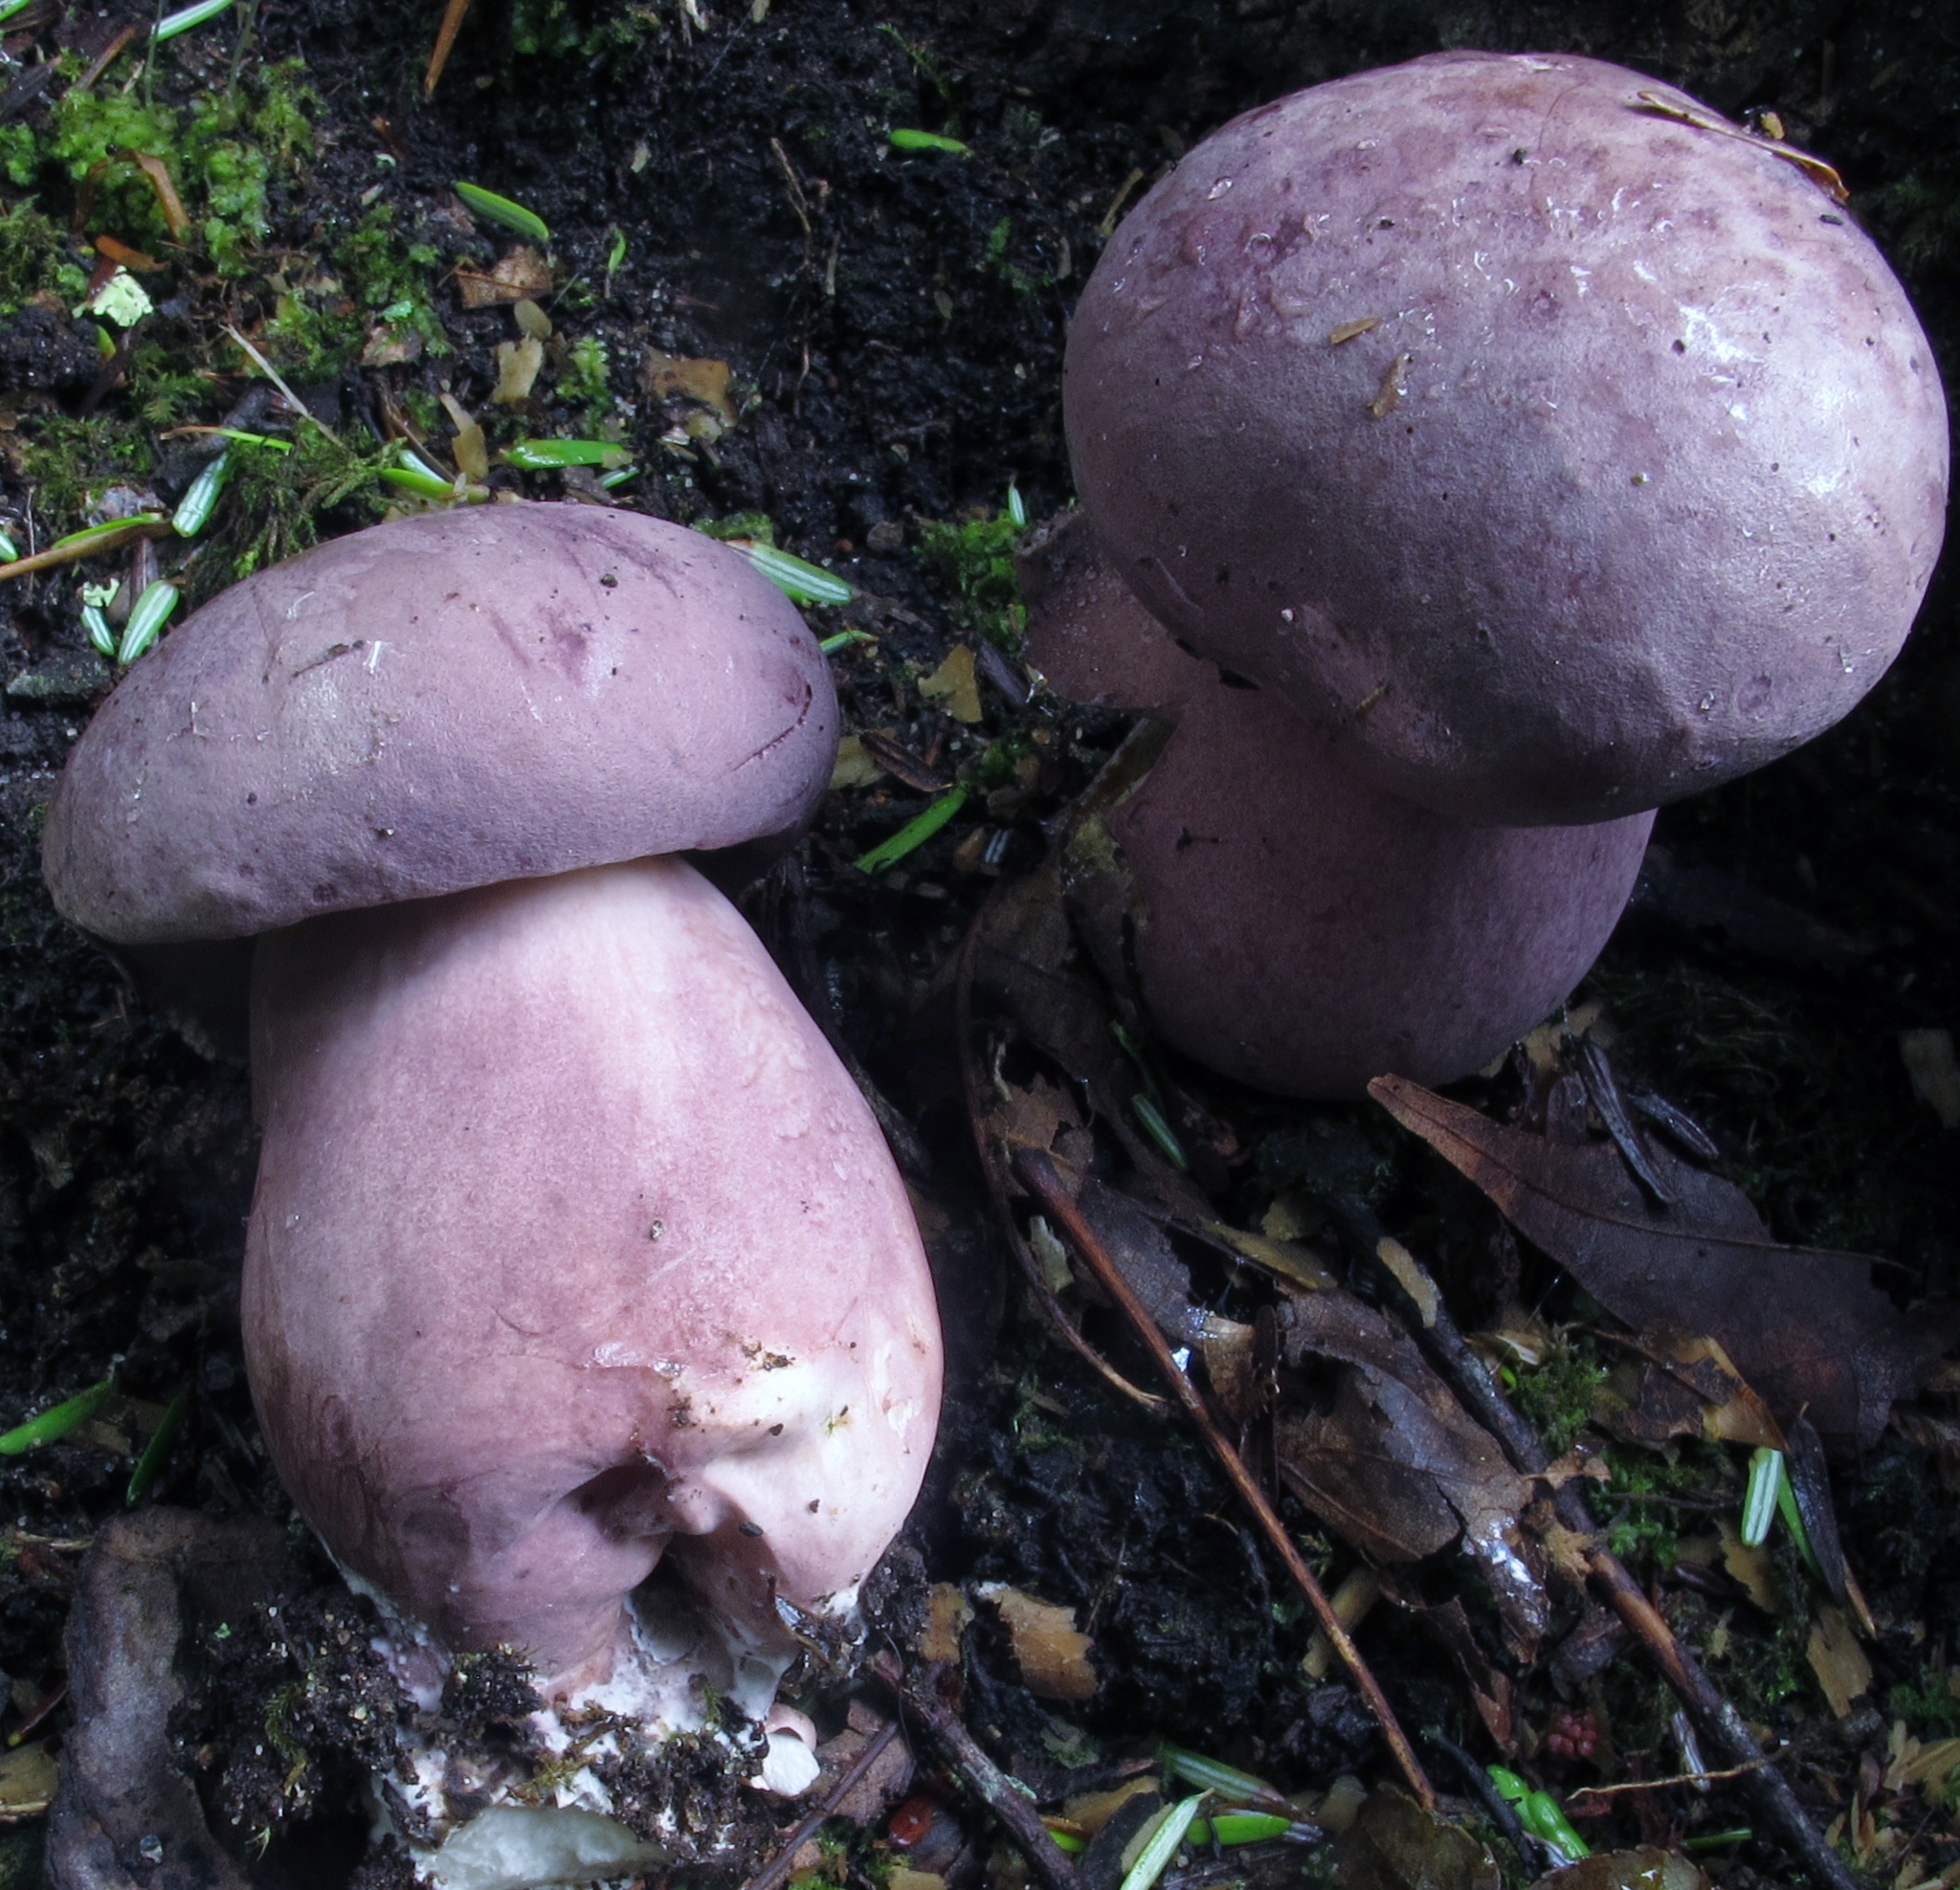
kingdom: Fungi
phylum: Basidiomycota
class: Agaricomycetes
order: Boletales
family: Boletaceae
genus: Tylopilus
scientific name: Tylopilus violatinctus
